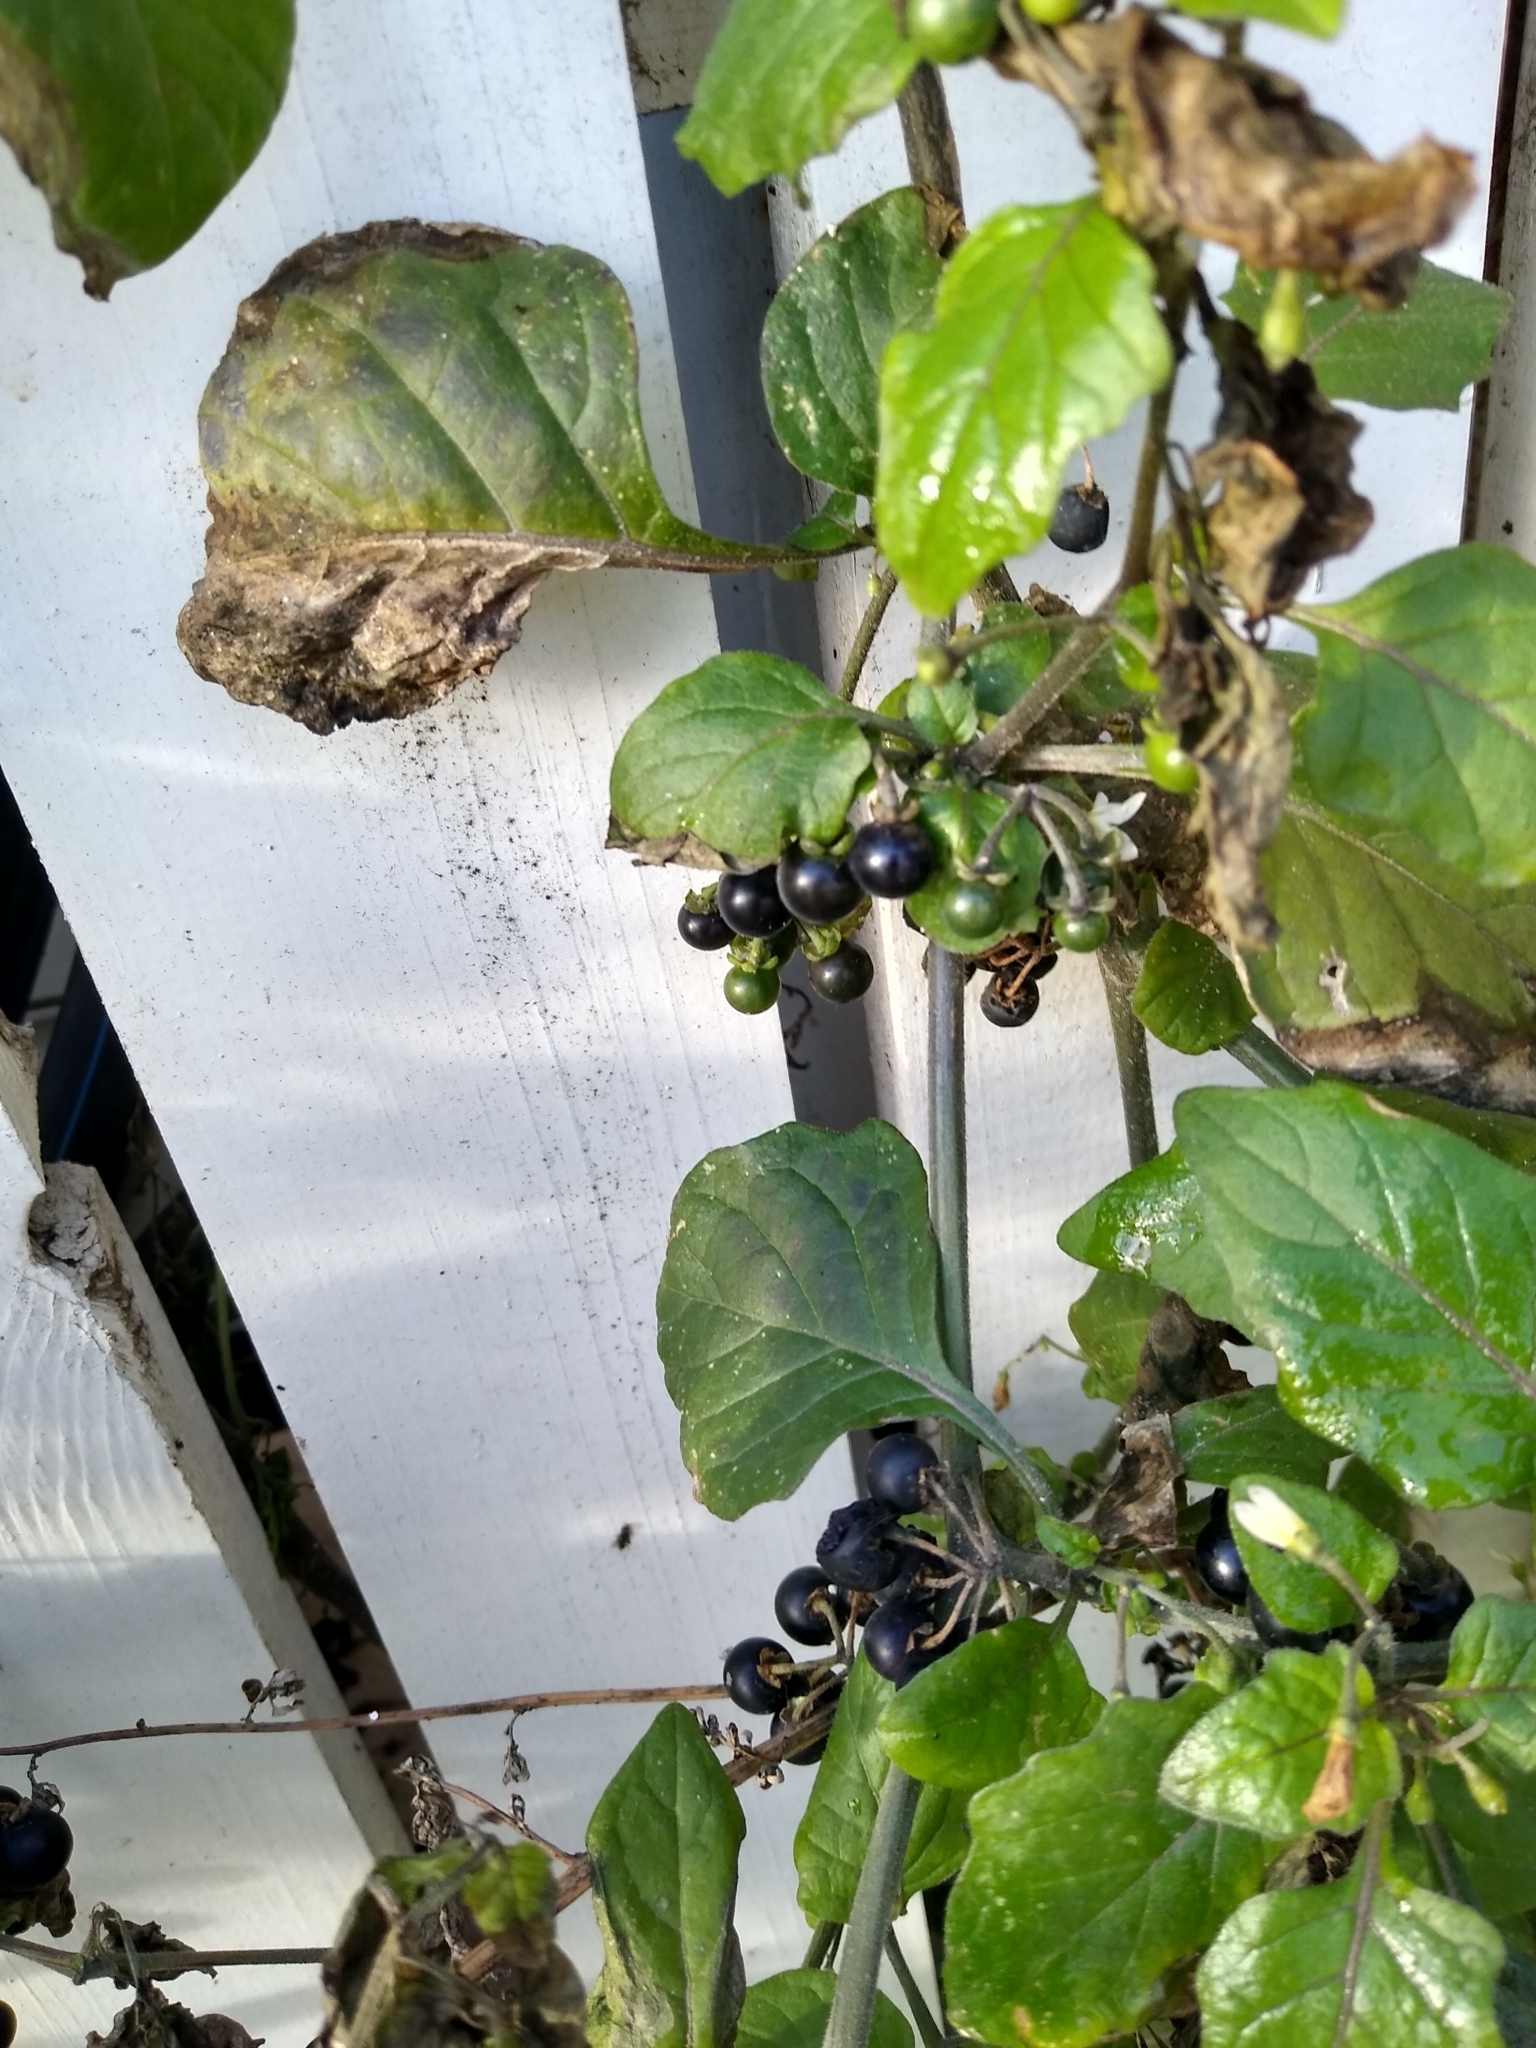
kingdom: Plantae
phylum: Tracheophyta
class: Magnoliopsida
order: Solanales
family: Solanaceae
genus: Solanum
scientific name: Solanum nigrum
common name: Black nightshade
